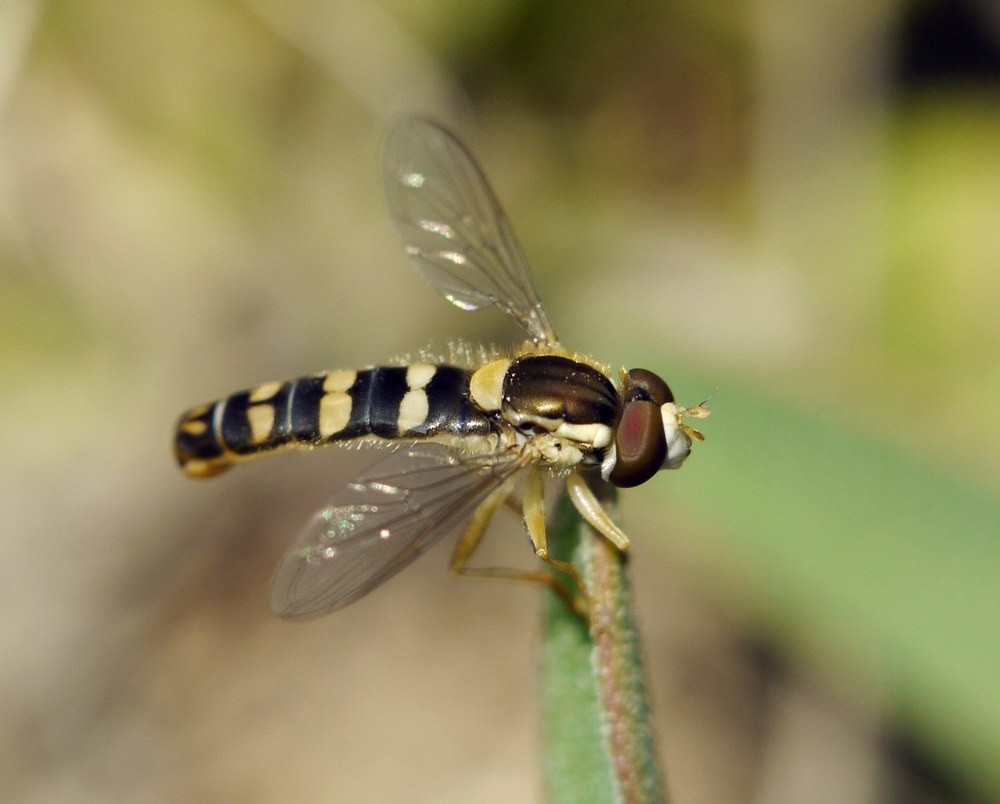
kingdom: Animalia
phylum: Arthropoda
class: Insecta
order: Diptera
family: Syrphidae
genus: Sphaerophoria
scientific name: Sphaerophoria
